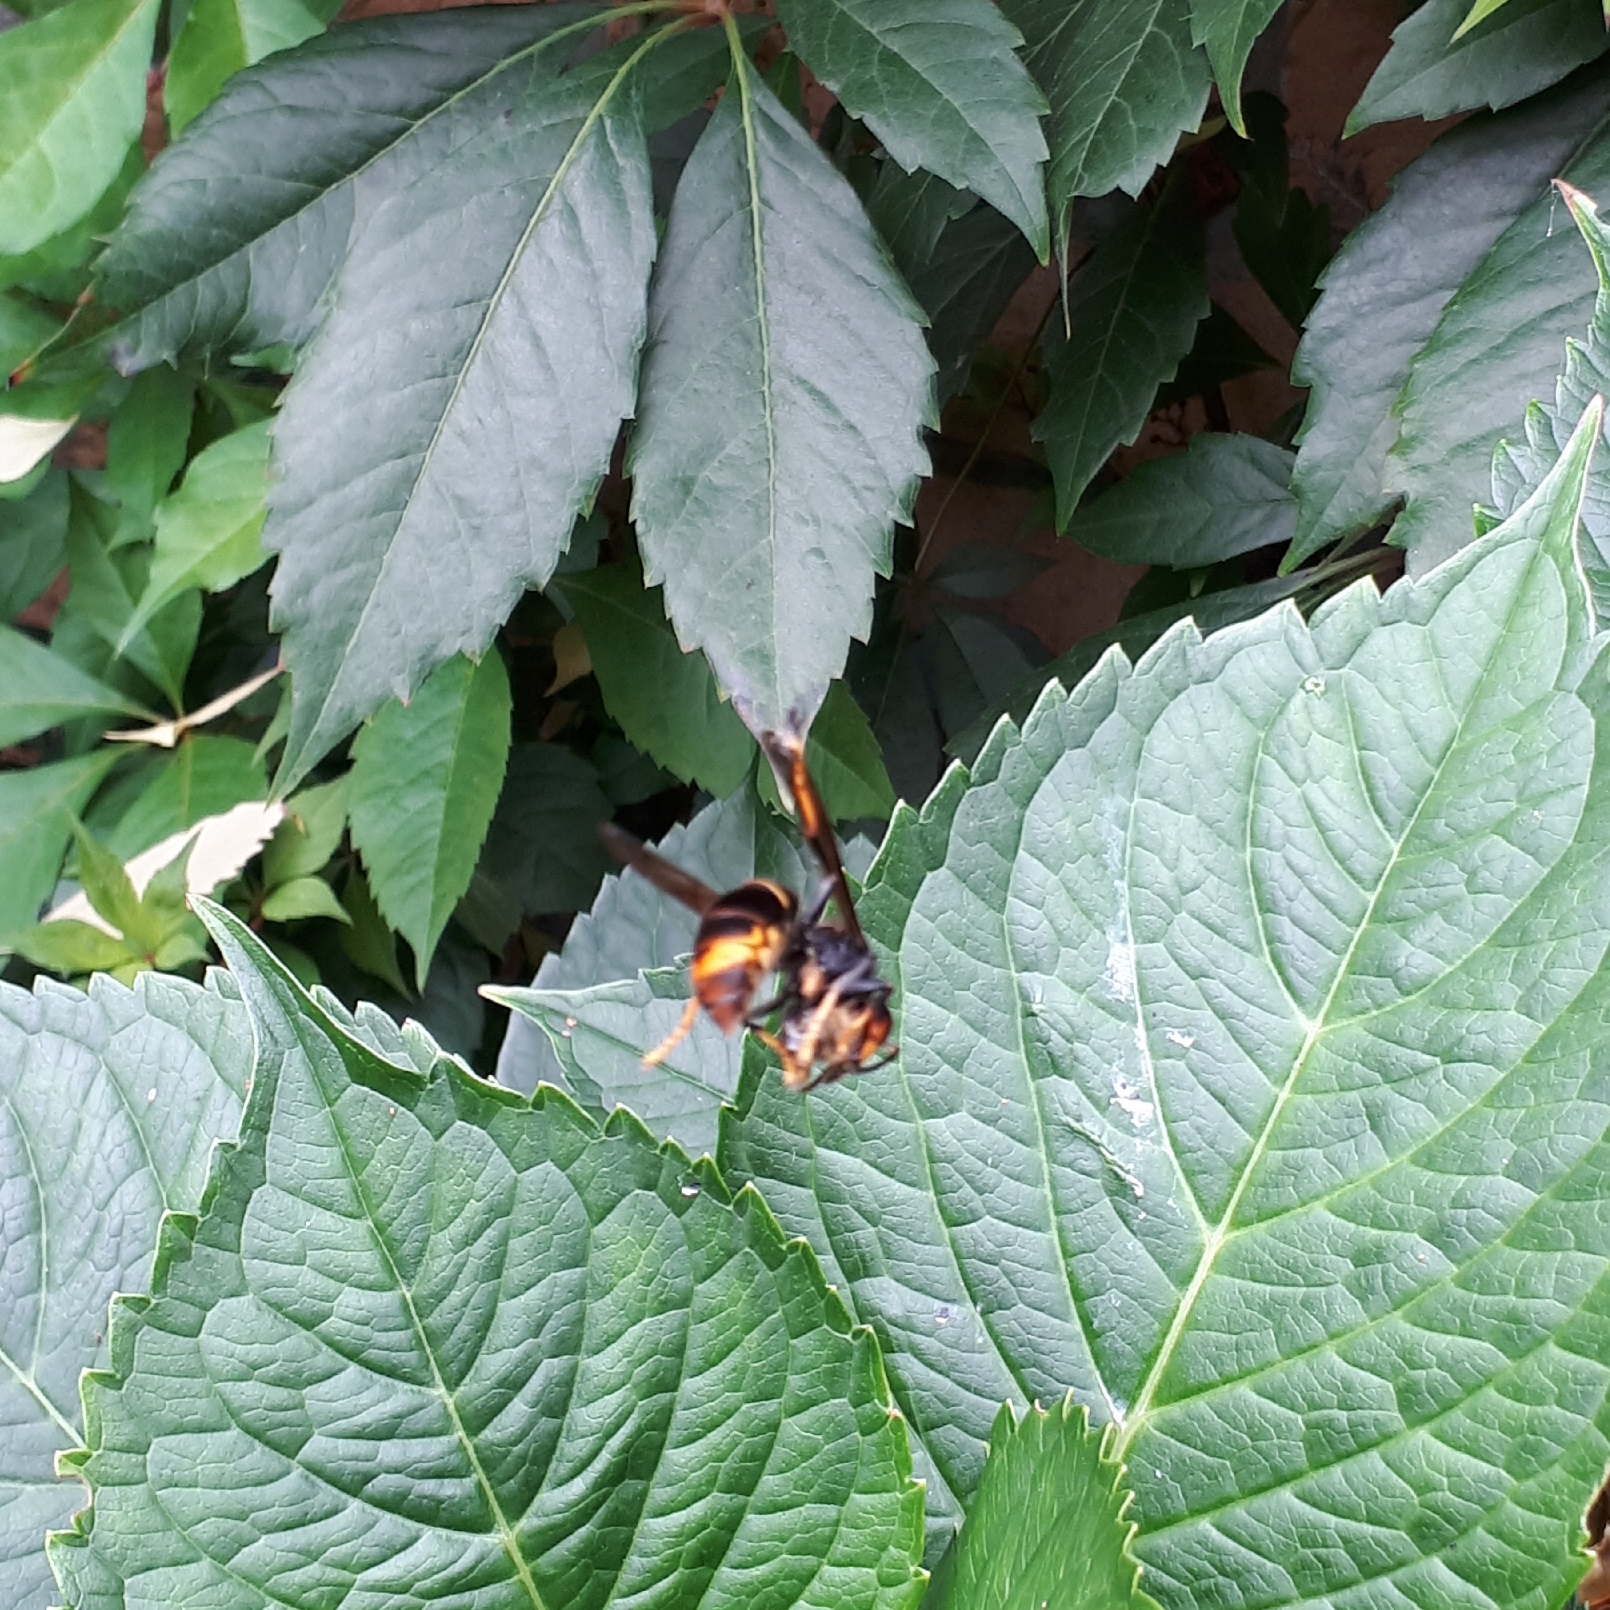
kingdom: Animalia
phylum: Arthropoda
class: Insecta
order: Hymenoptera
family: Vespidae
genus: Vespa
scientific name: Vespa velutina
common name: Asian hornet
